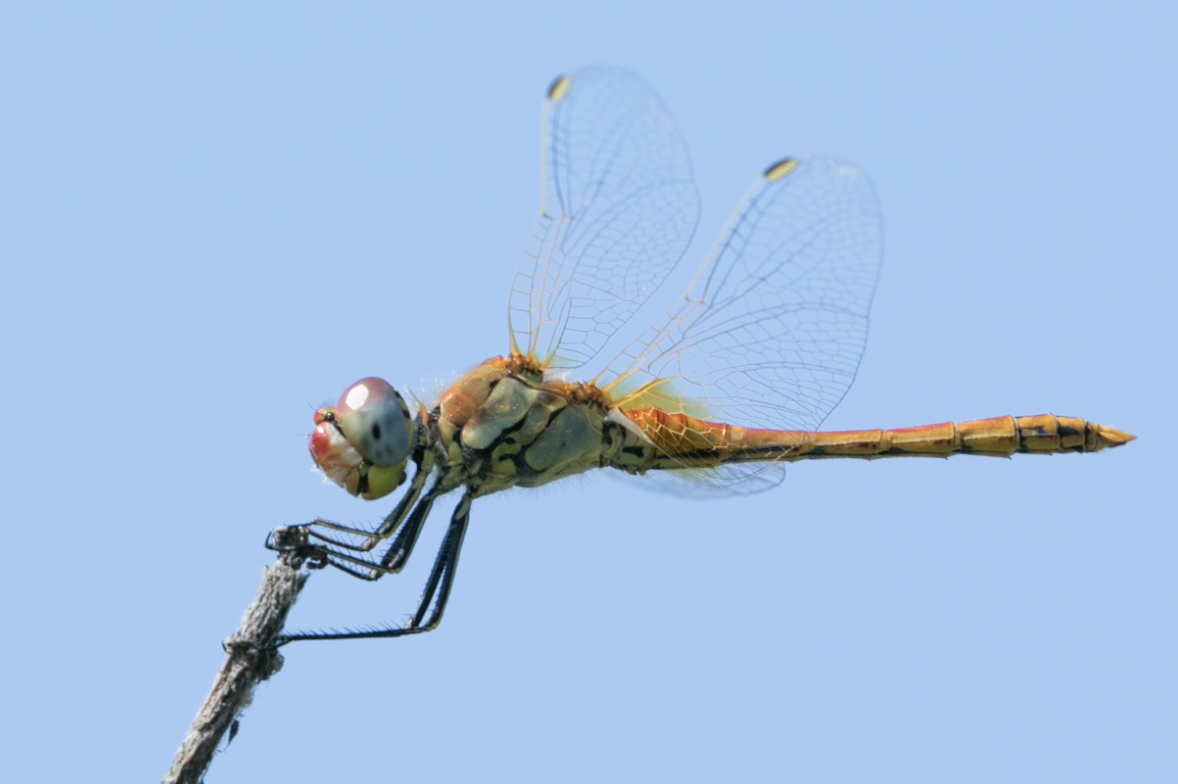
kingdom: Animalia
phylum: Arthropoda
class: Insecta
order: Odonata
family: Libellulidae
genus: Sympetrum
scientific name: Sympetrum fonscolombii
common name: Red-veined darter
